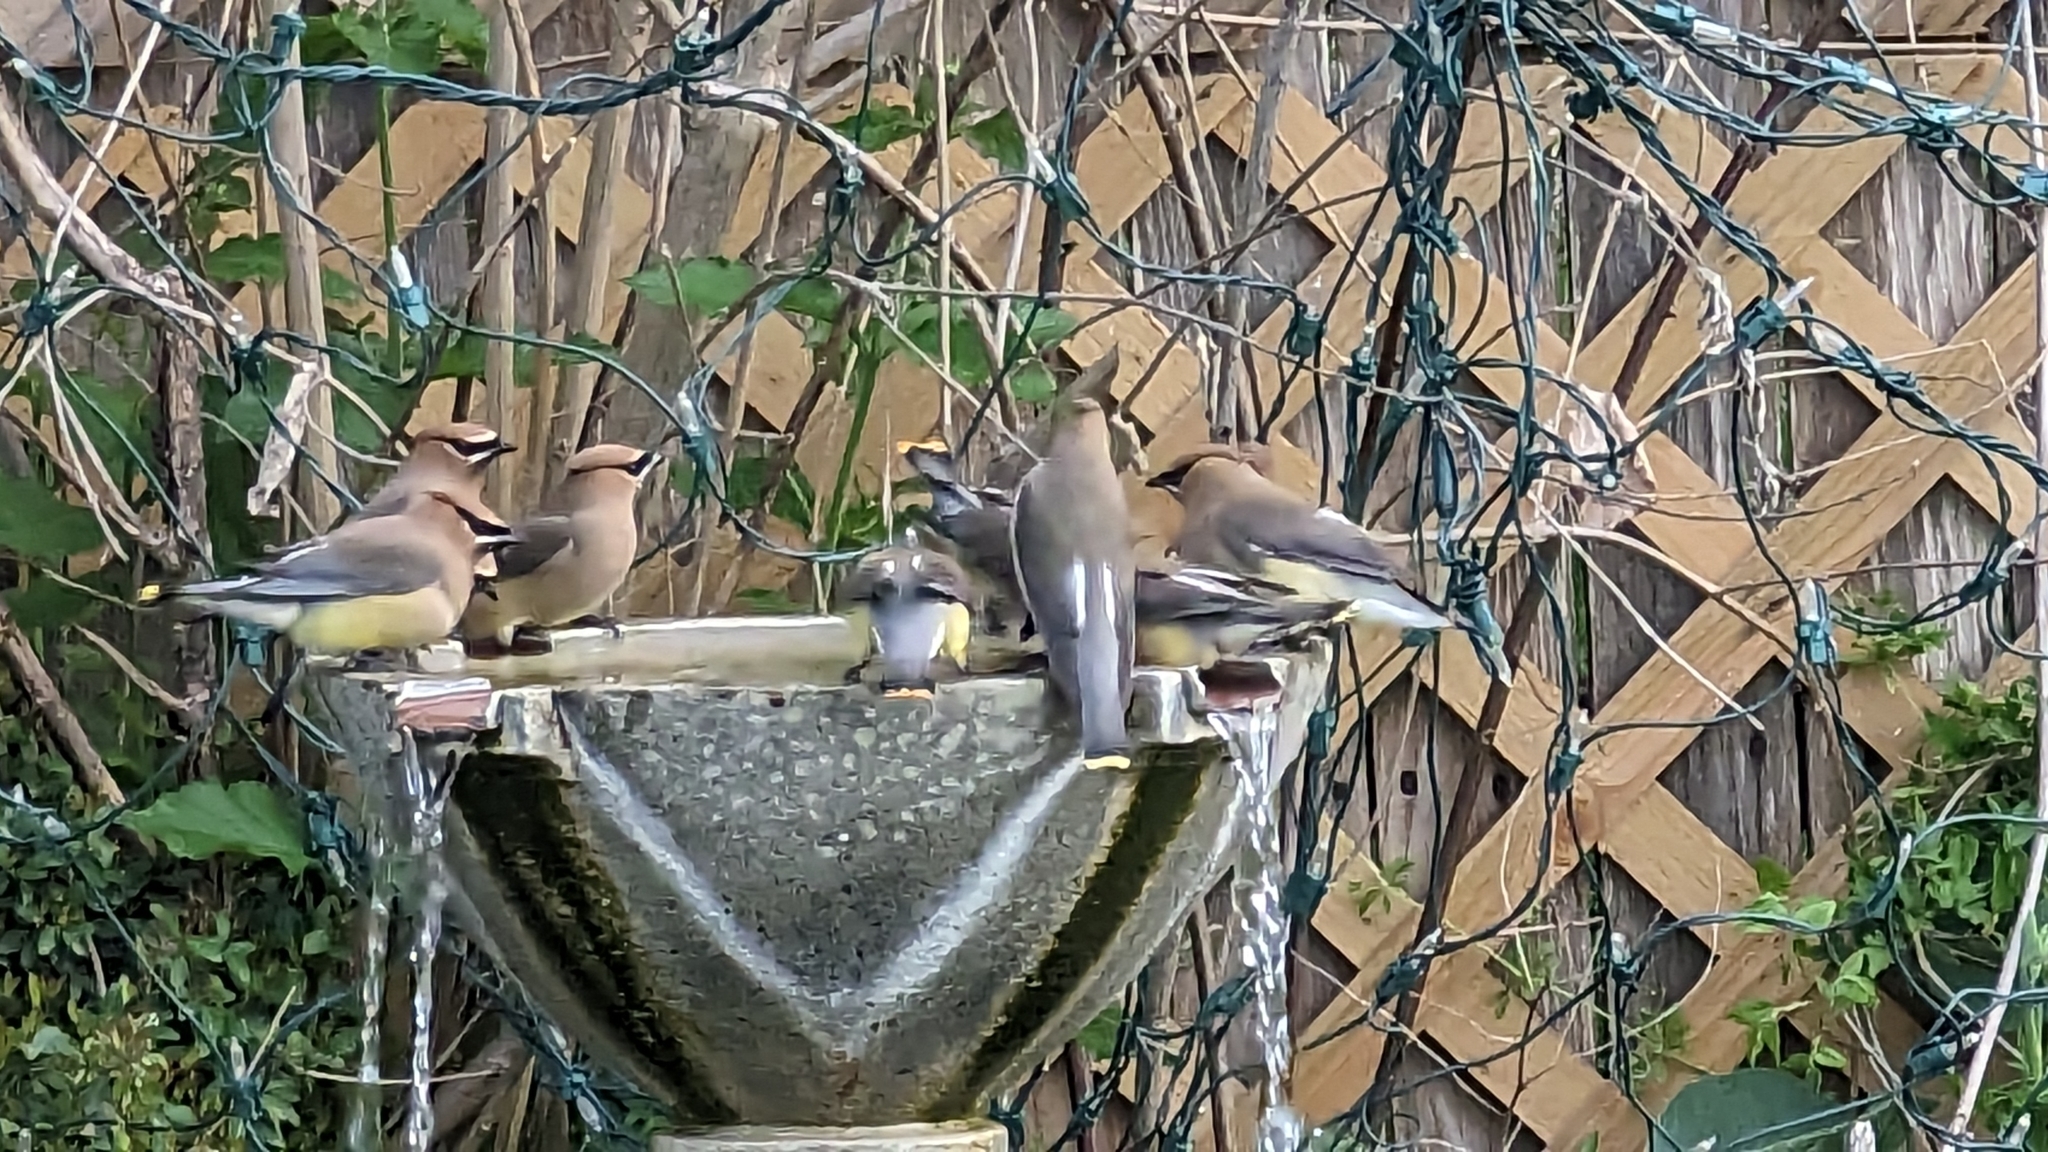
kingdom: Animalia
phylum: Chordata
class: Aves
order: Passeriformes
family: Bombycillidae
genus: Bombycilla
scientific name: Bombycilla cedrorum
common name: Cedar waxwing
